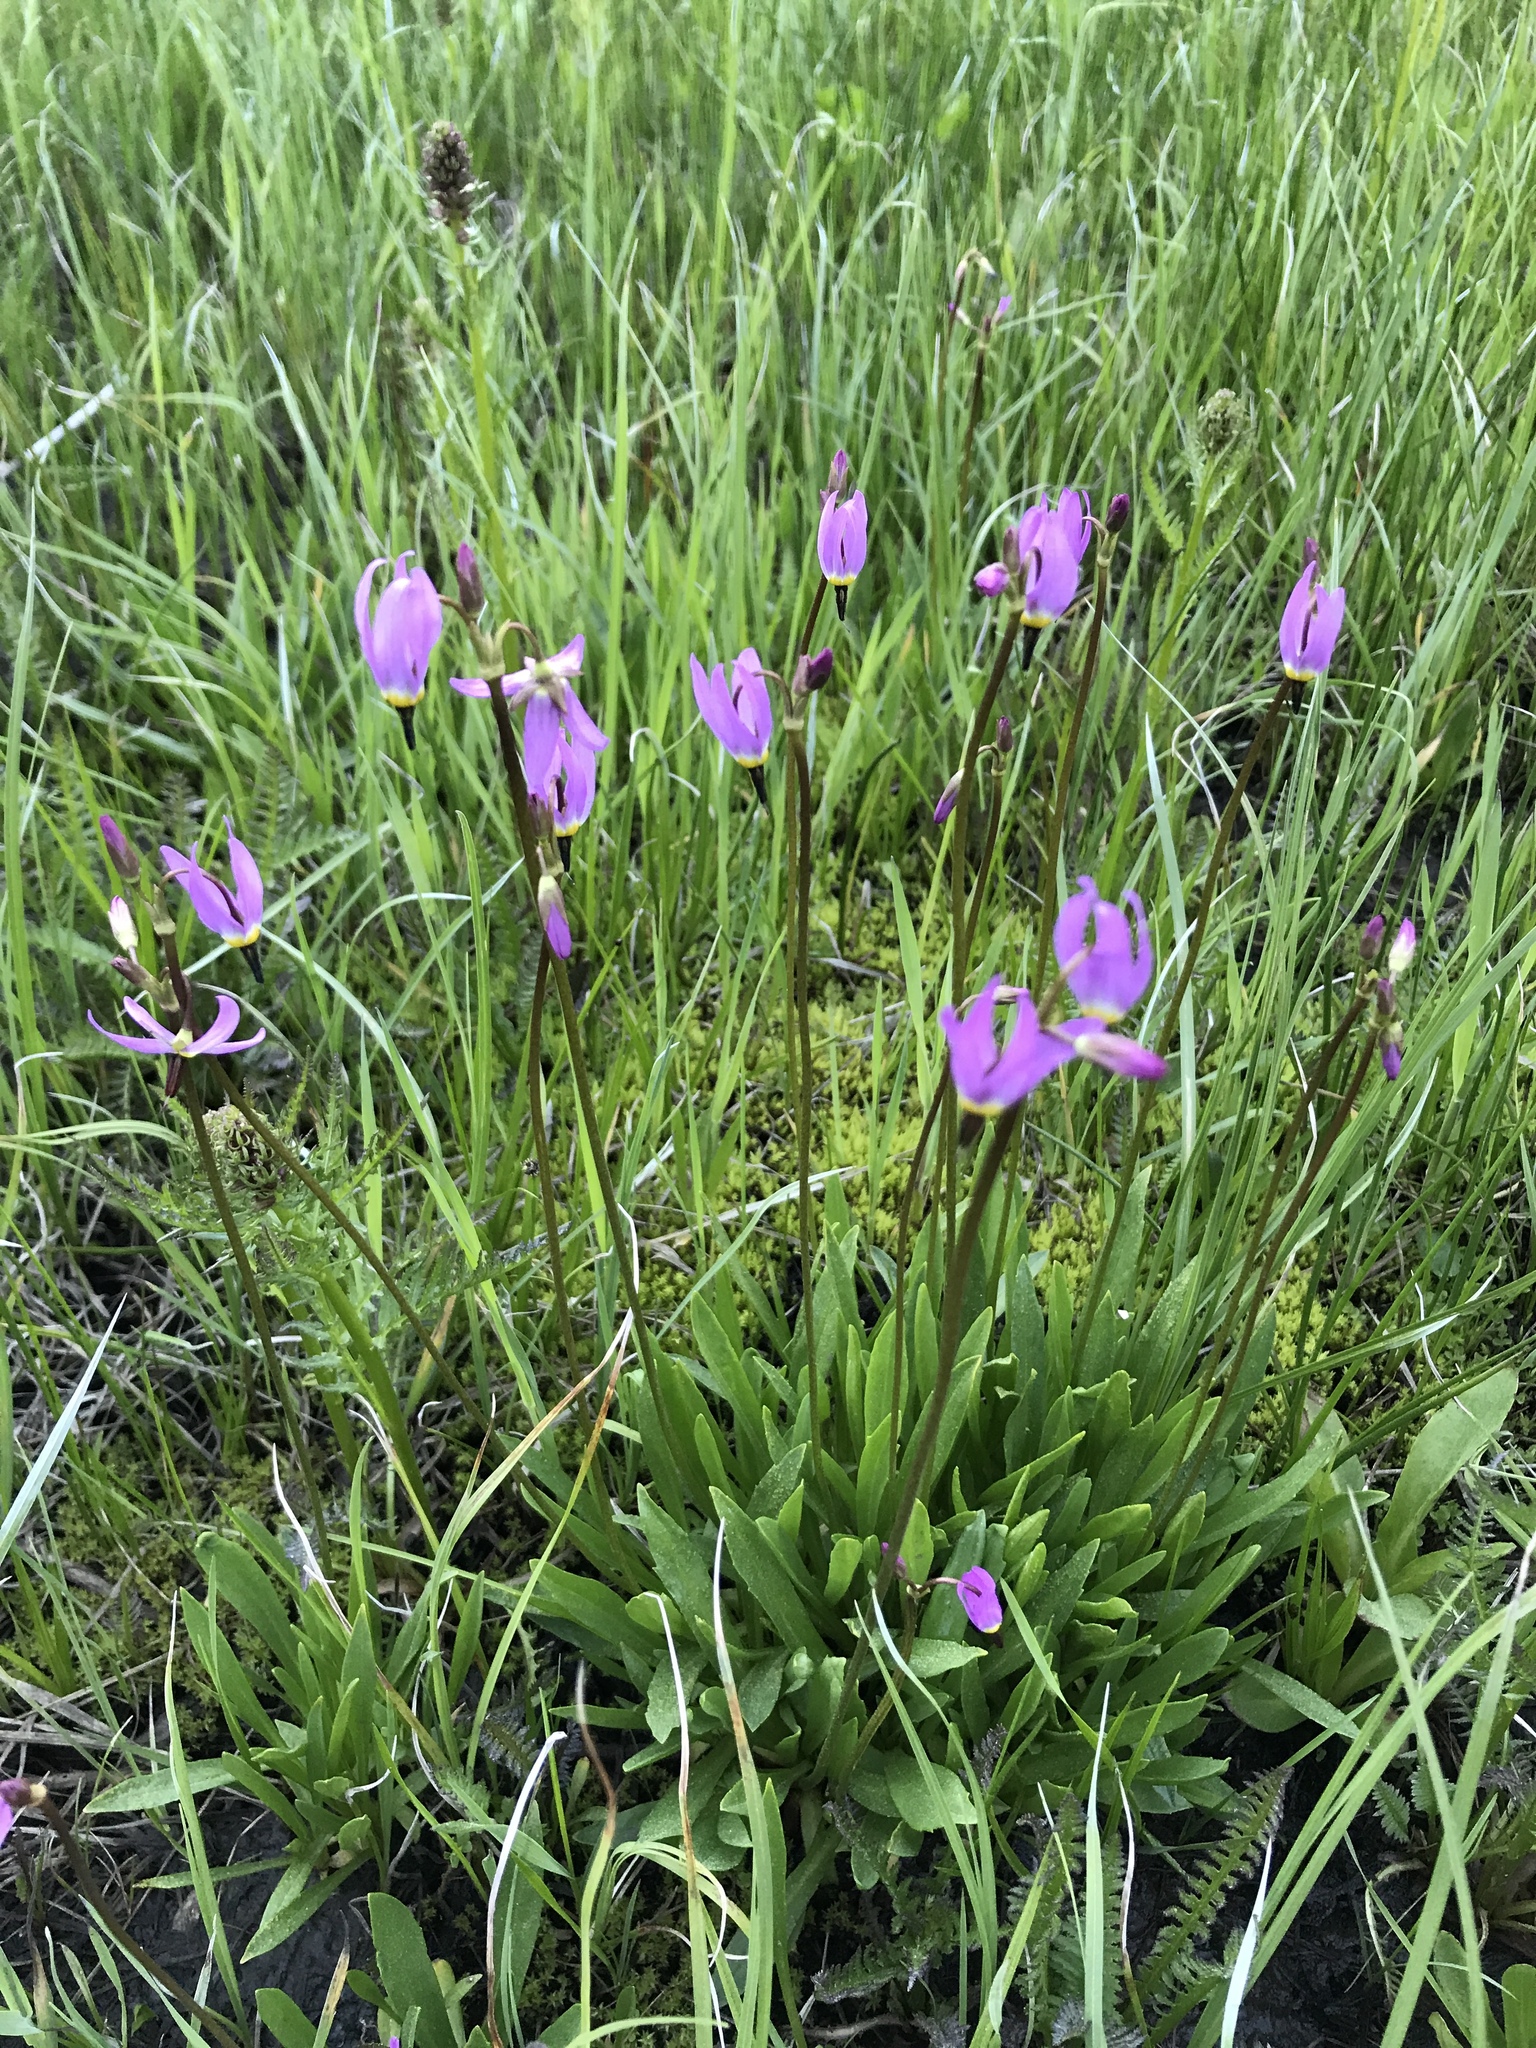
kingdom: Plantae
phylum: Tracheophyta
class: Magnoliopsida
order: Ericales
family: Primulaceae
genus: Dodecatheon
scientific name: Dodecatheon alpinum
